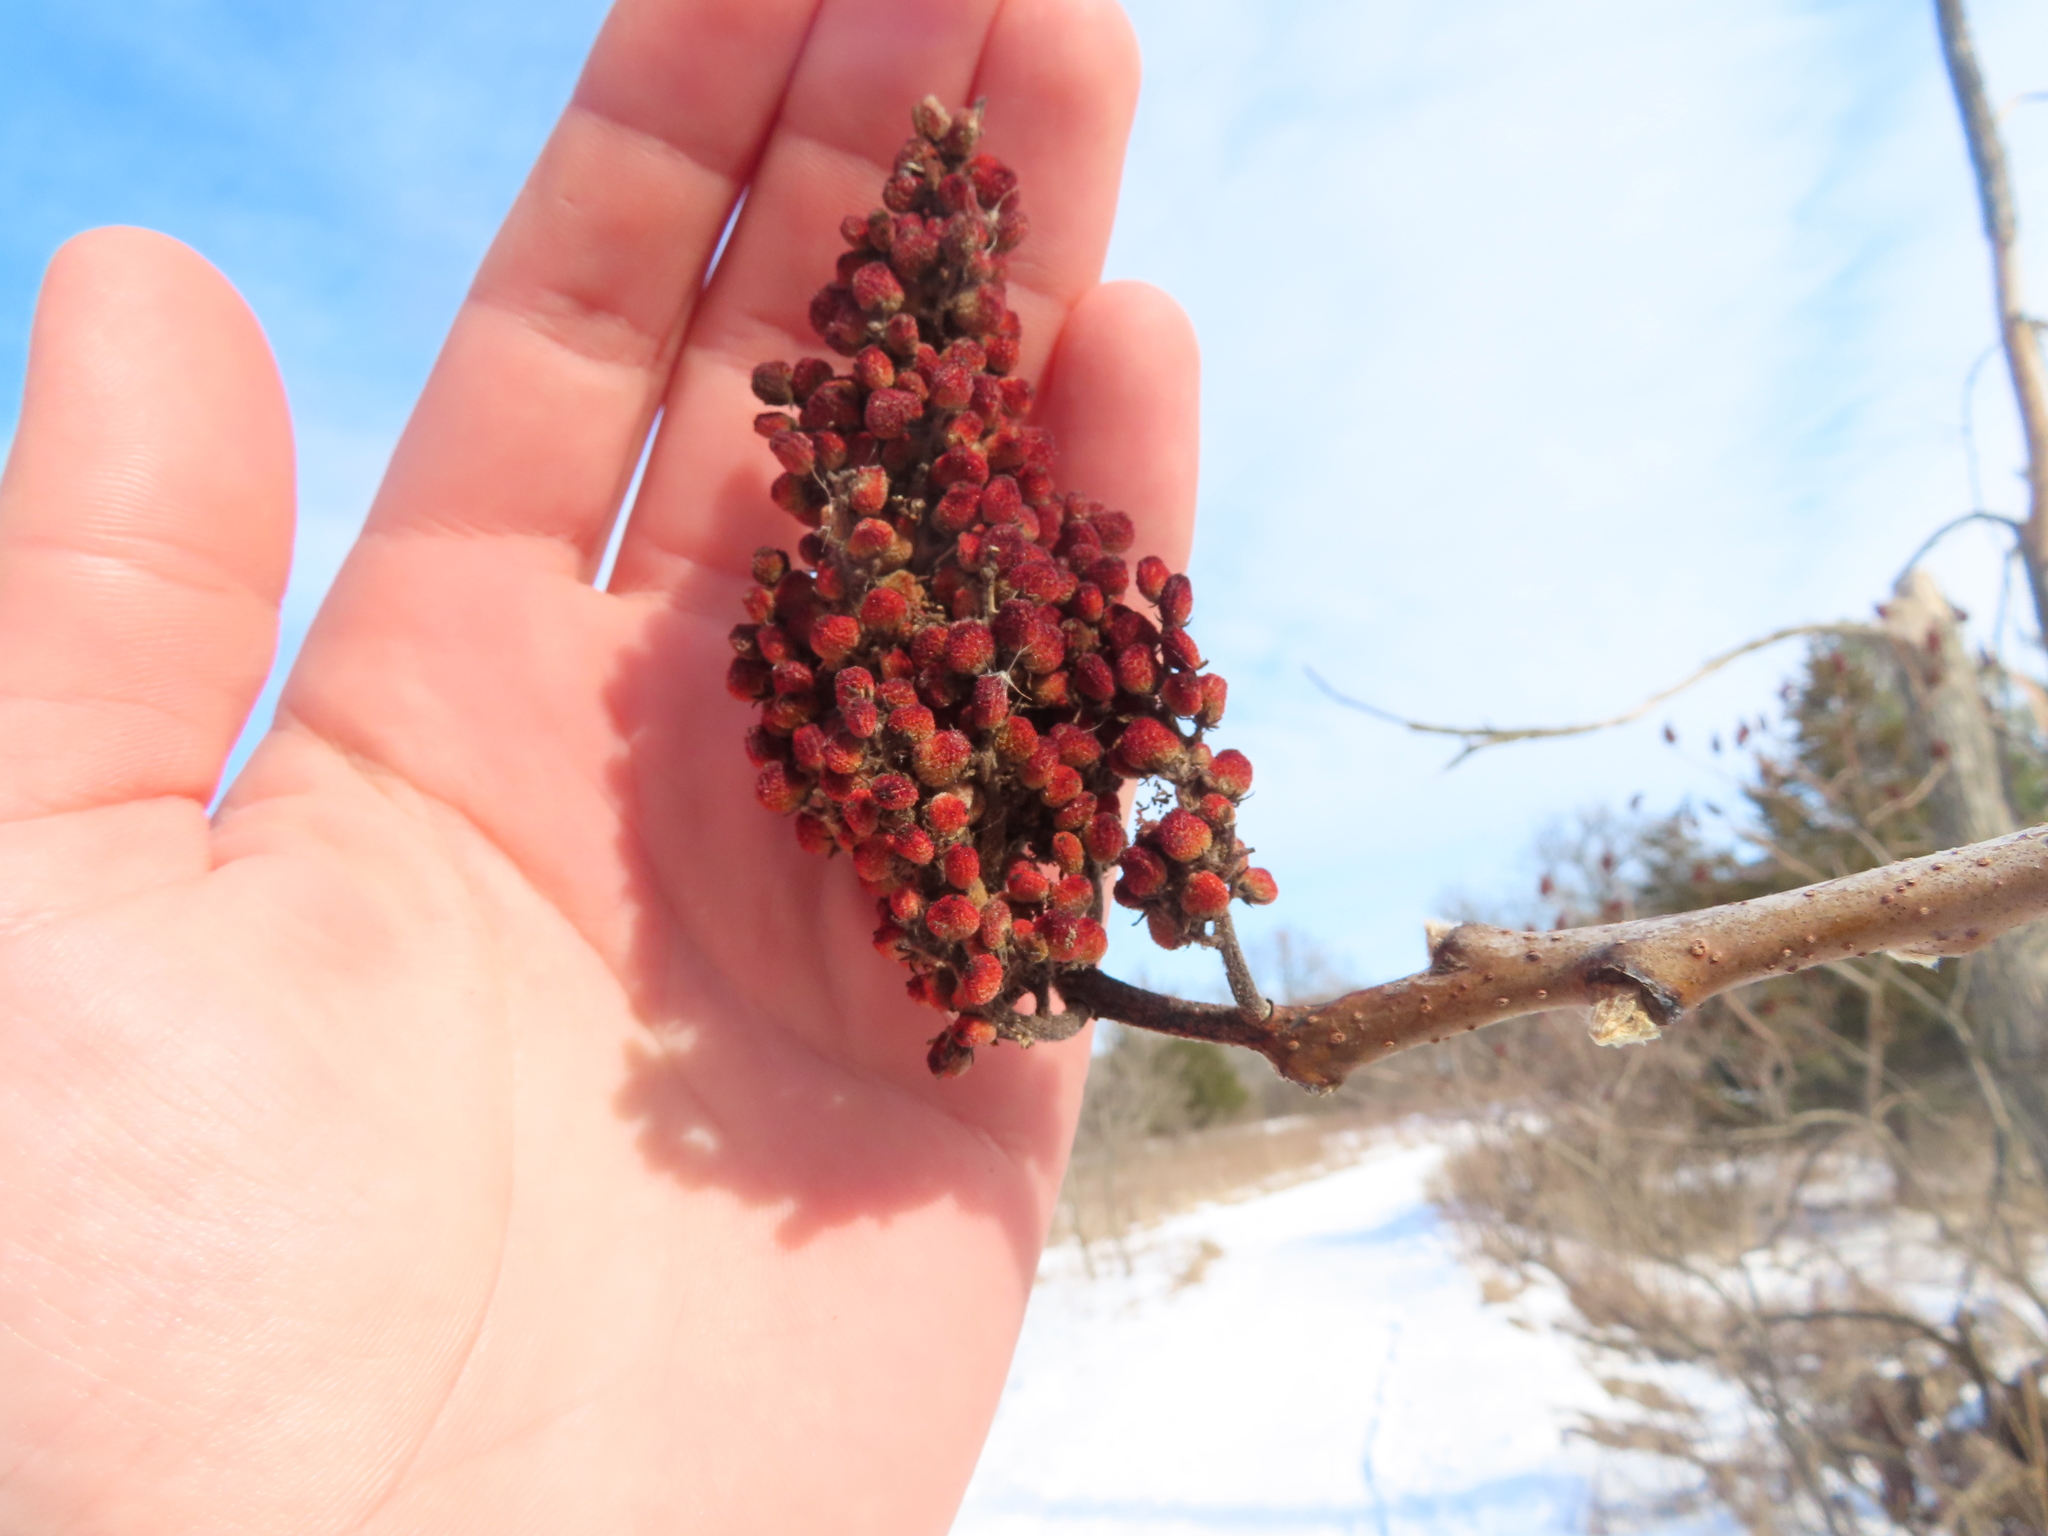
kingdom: Plantae
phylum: Tracheophyta
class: Magnoliopsida
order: Sapindales
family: Anacardiaceae
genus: Rhus
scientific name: Rhus glabra
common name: Scarlet sumac
